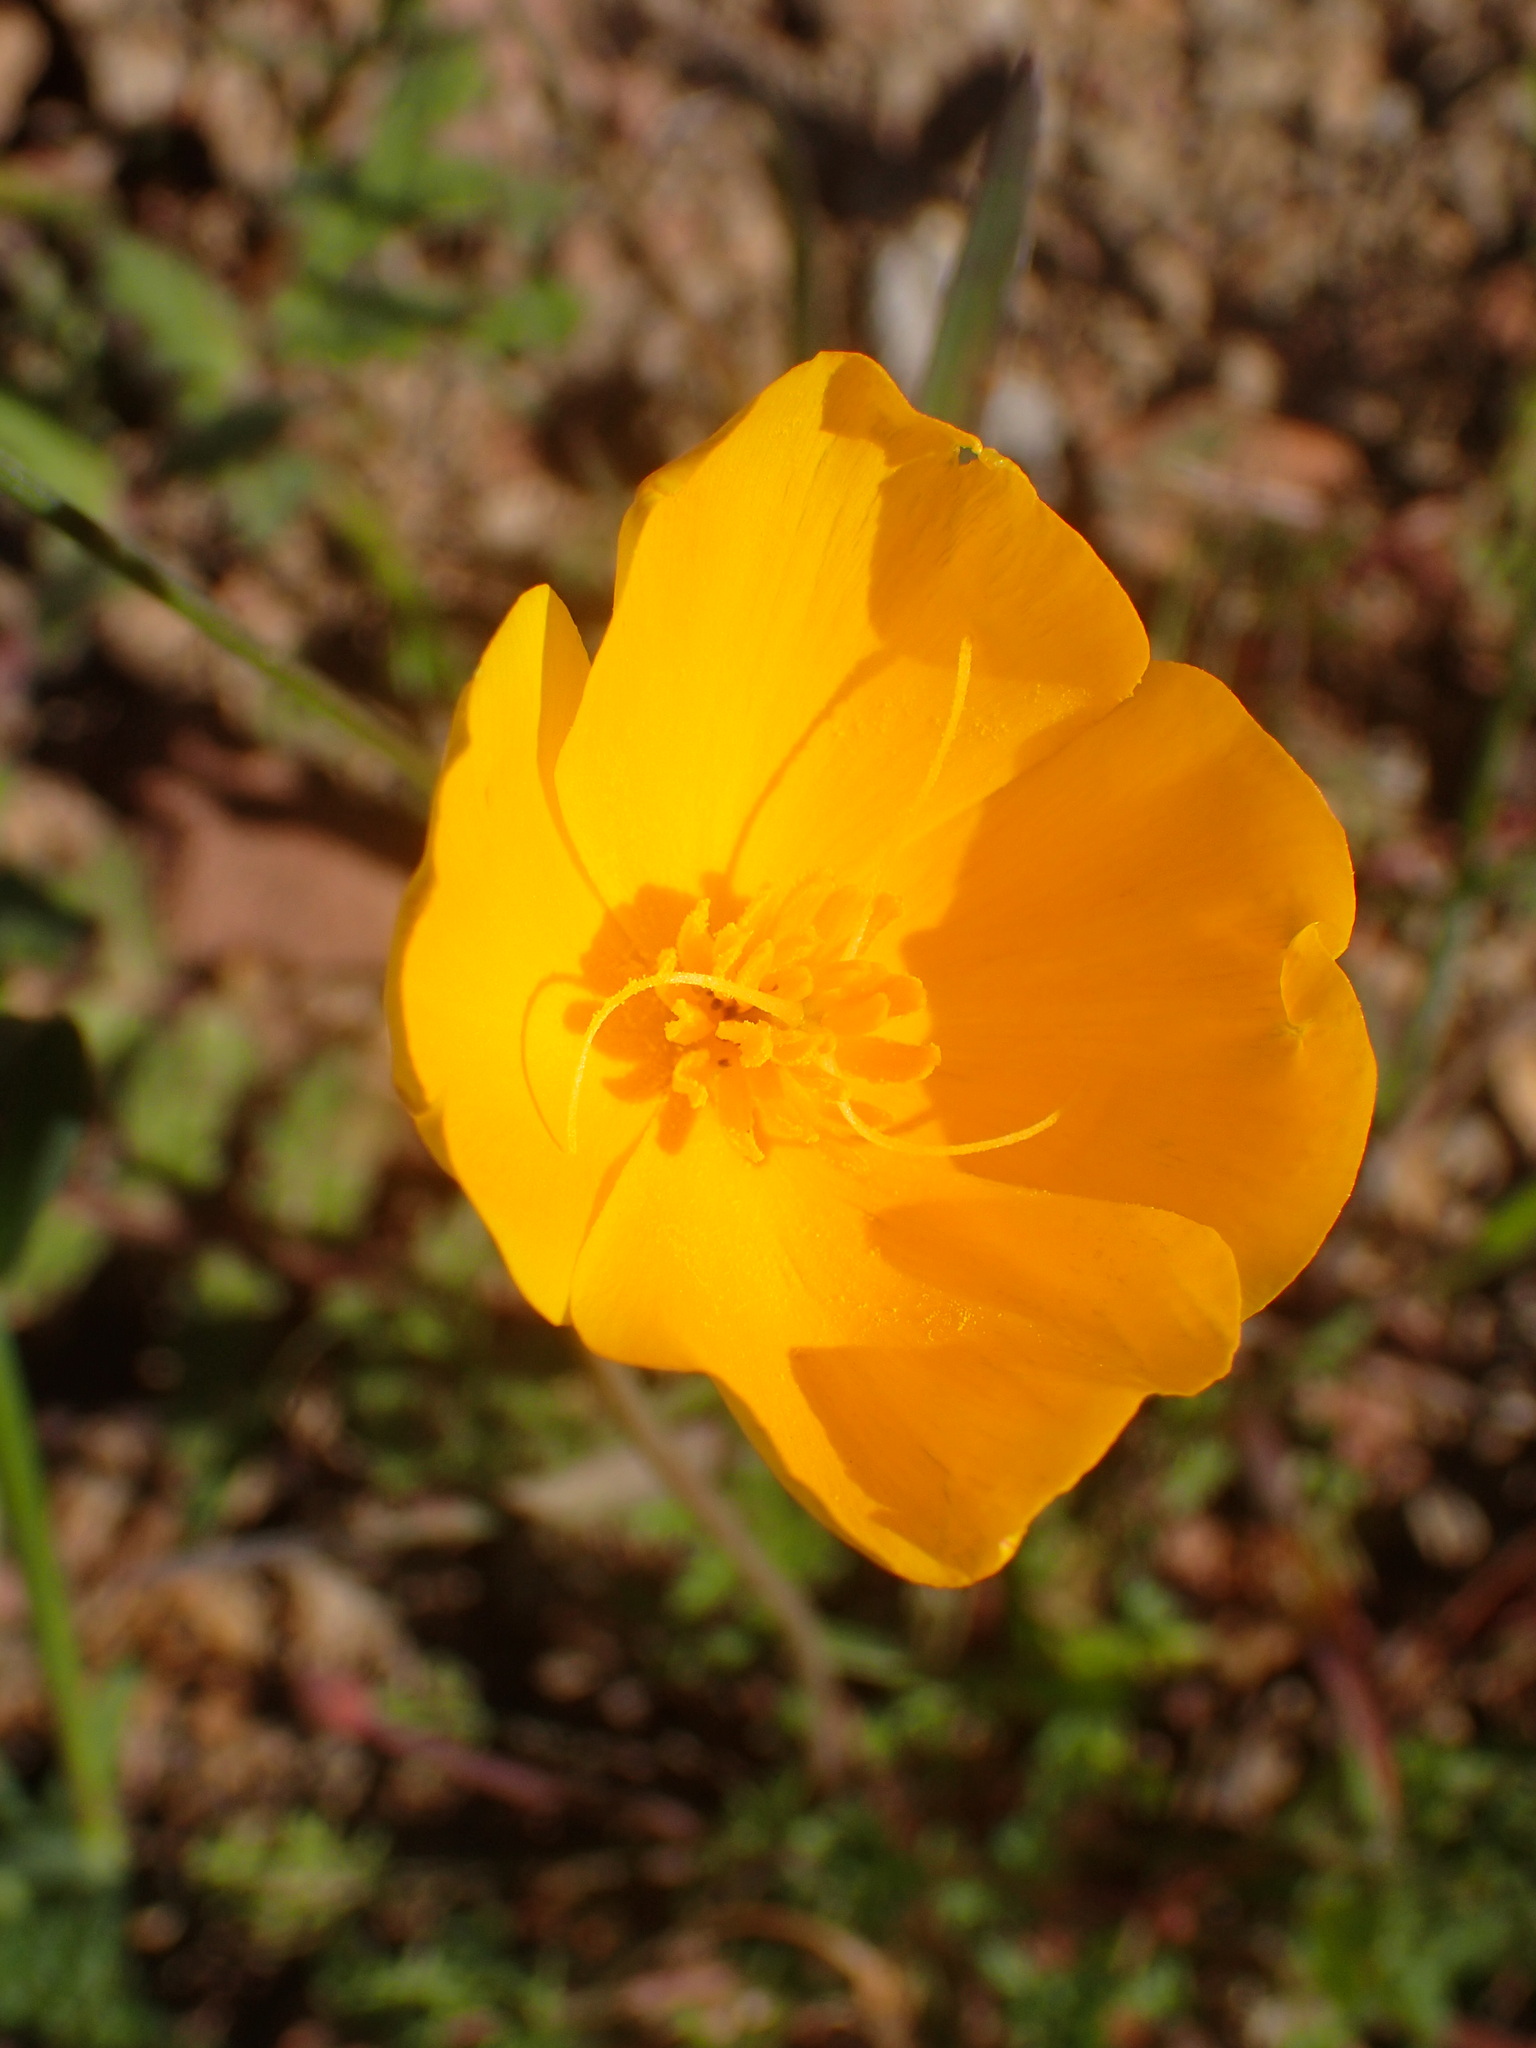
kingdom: Plantae
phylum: Tracheophyta
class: Magnoliopsida
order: Ranunculales
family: Papaveraceae
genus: Eschscholzia
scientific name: Eschscholzia caespitosa
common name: Tufted california-poppy
